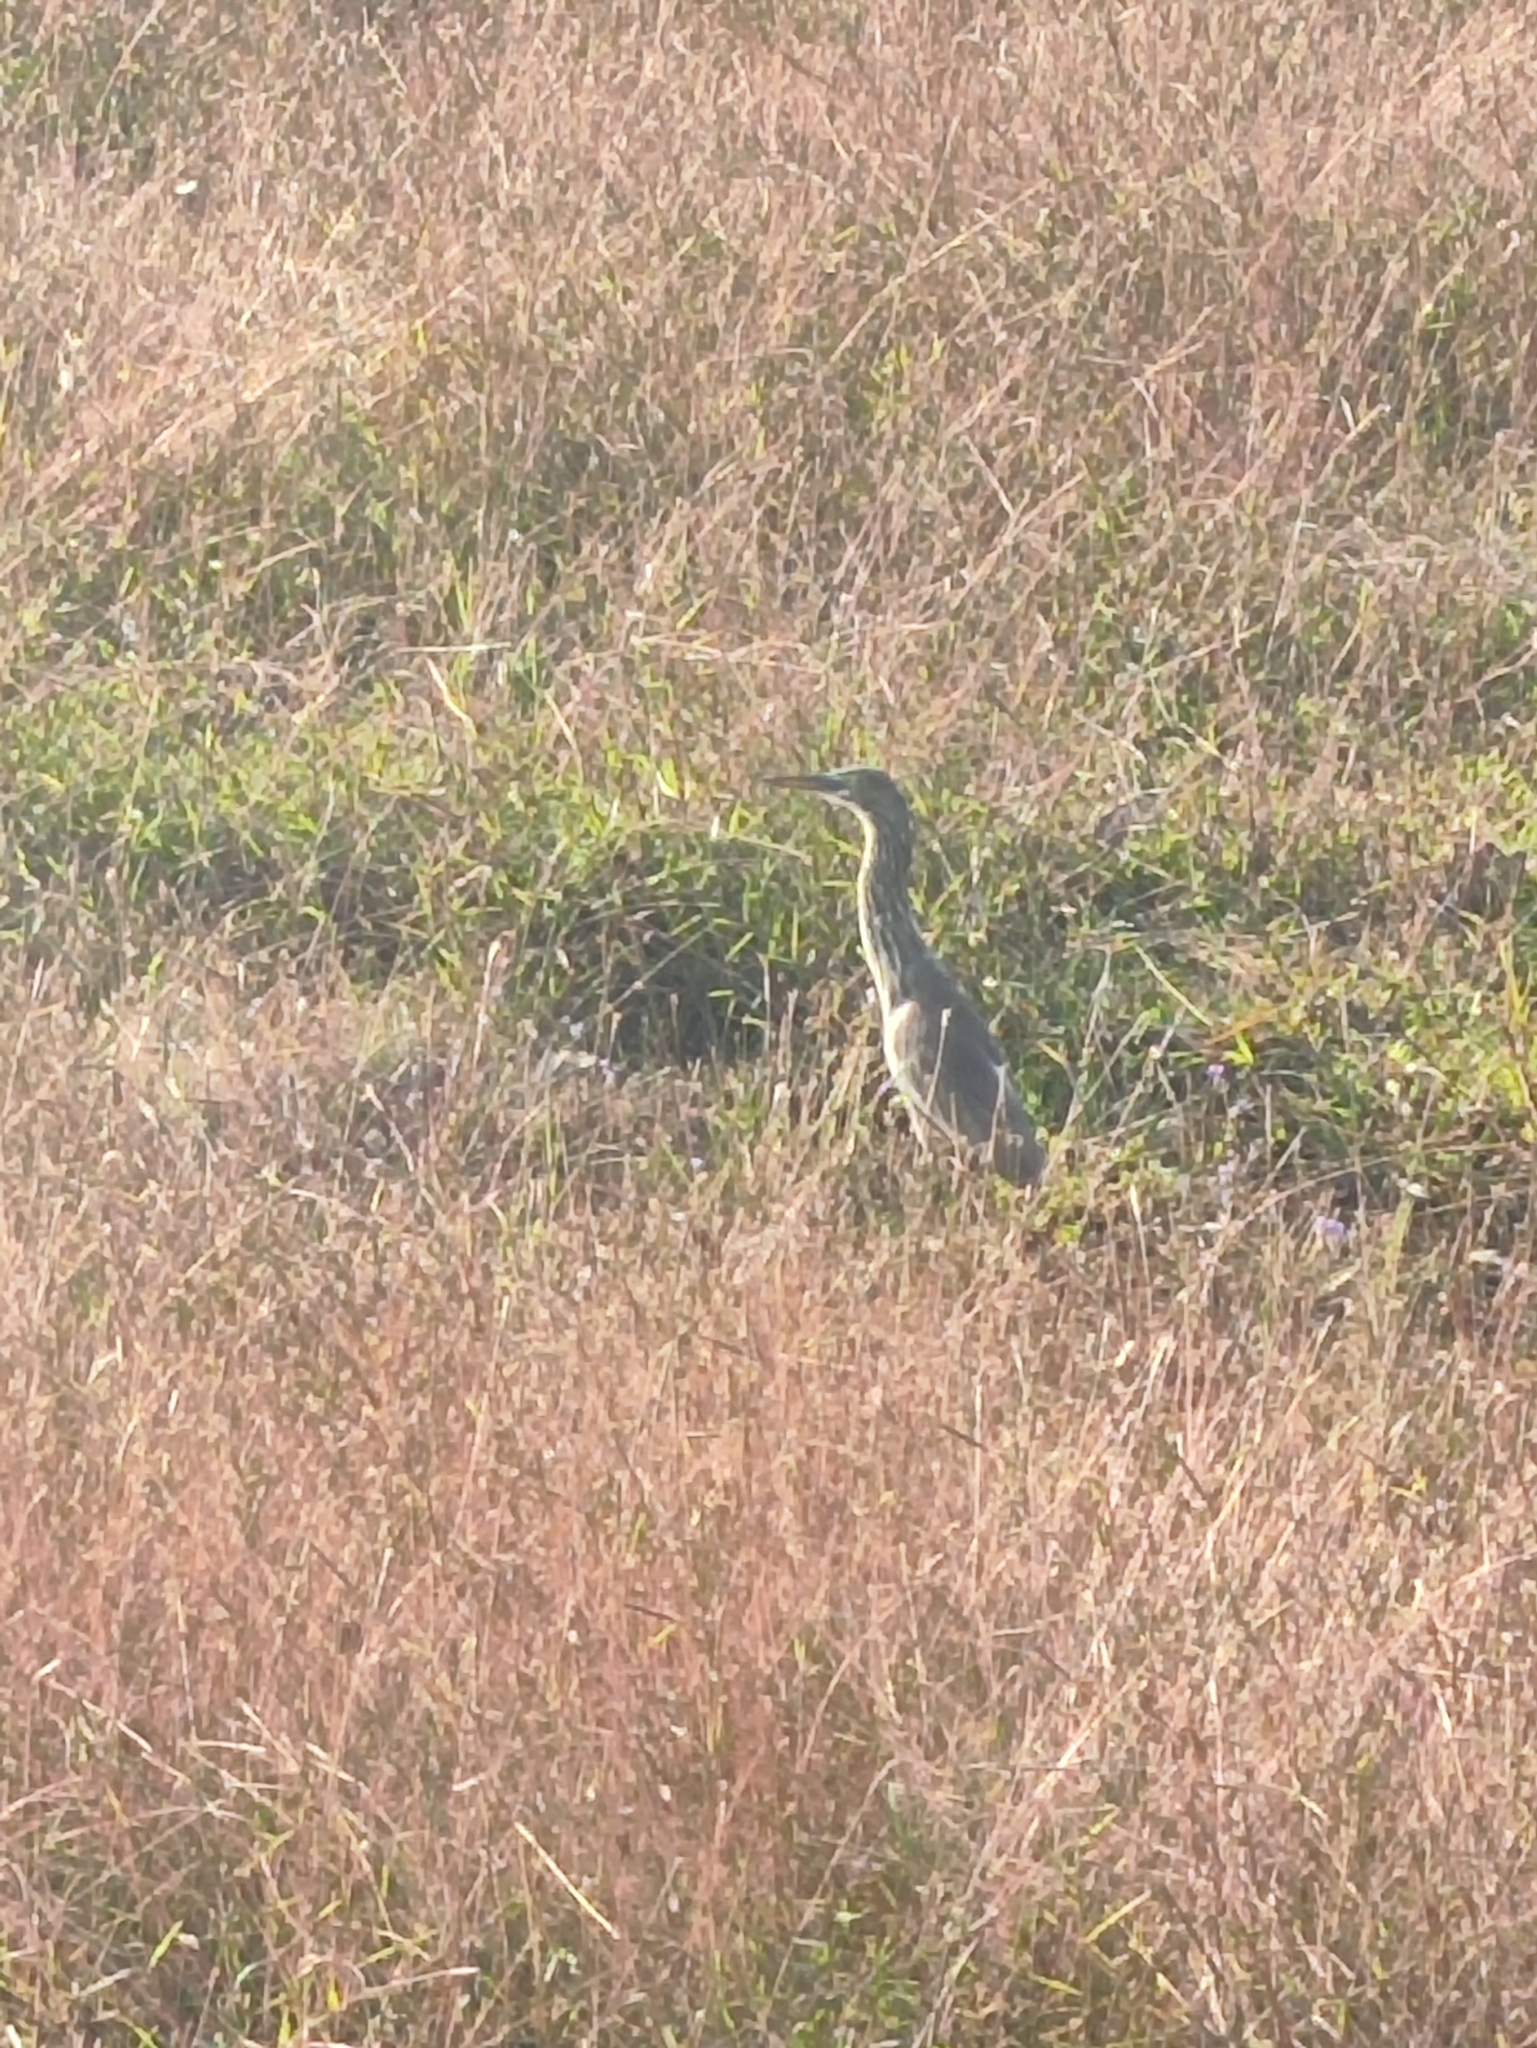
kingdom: Animalia
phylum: Chordata
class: Aves
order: Pelecaniformes
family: Ardeidae
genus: Ardeola
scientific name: Ardeola grayii
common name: Indian pond heron
